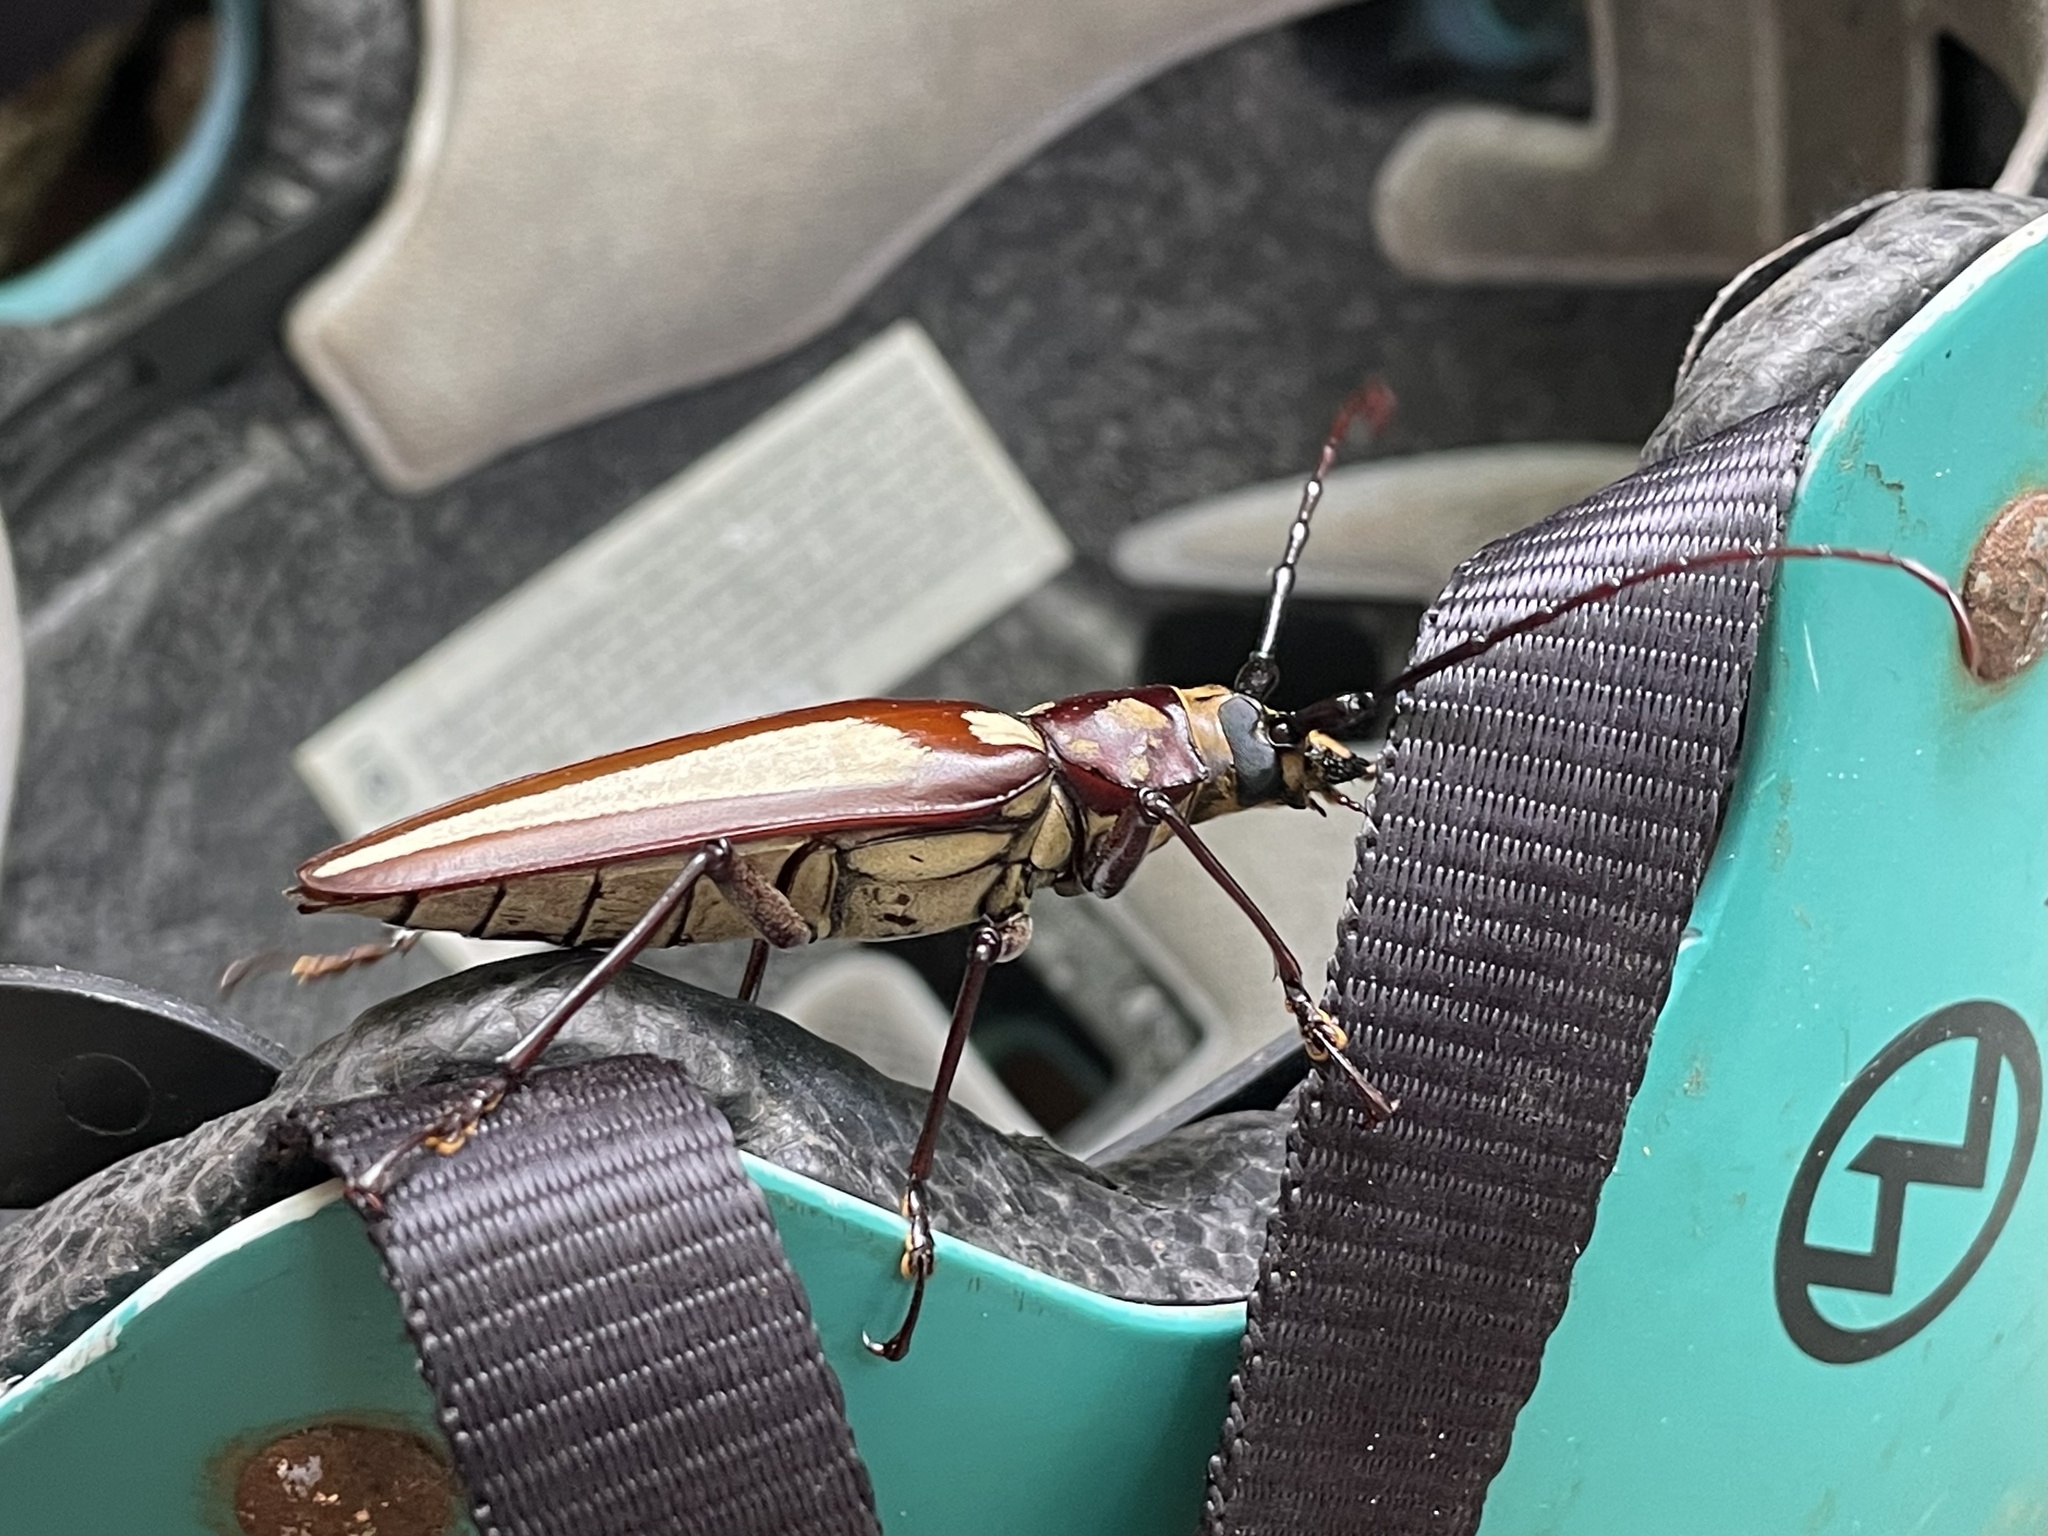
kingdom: Animalia
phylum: Arthropoda
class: Insecta
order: Coleoptera
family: Cerambycidae
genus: Callipogon
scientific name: Callipogon lemoinei
